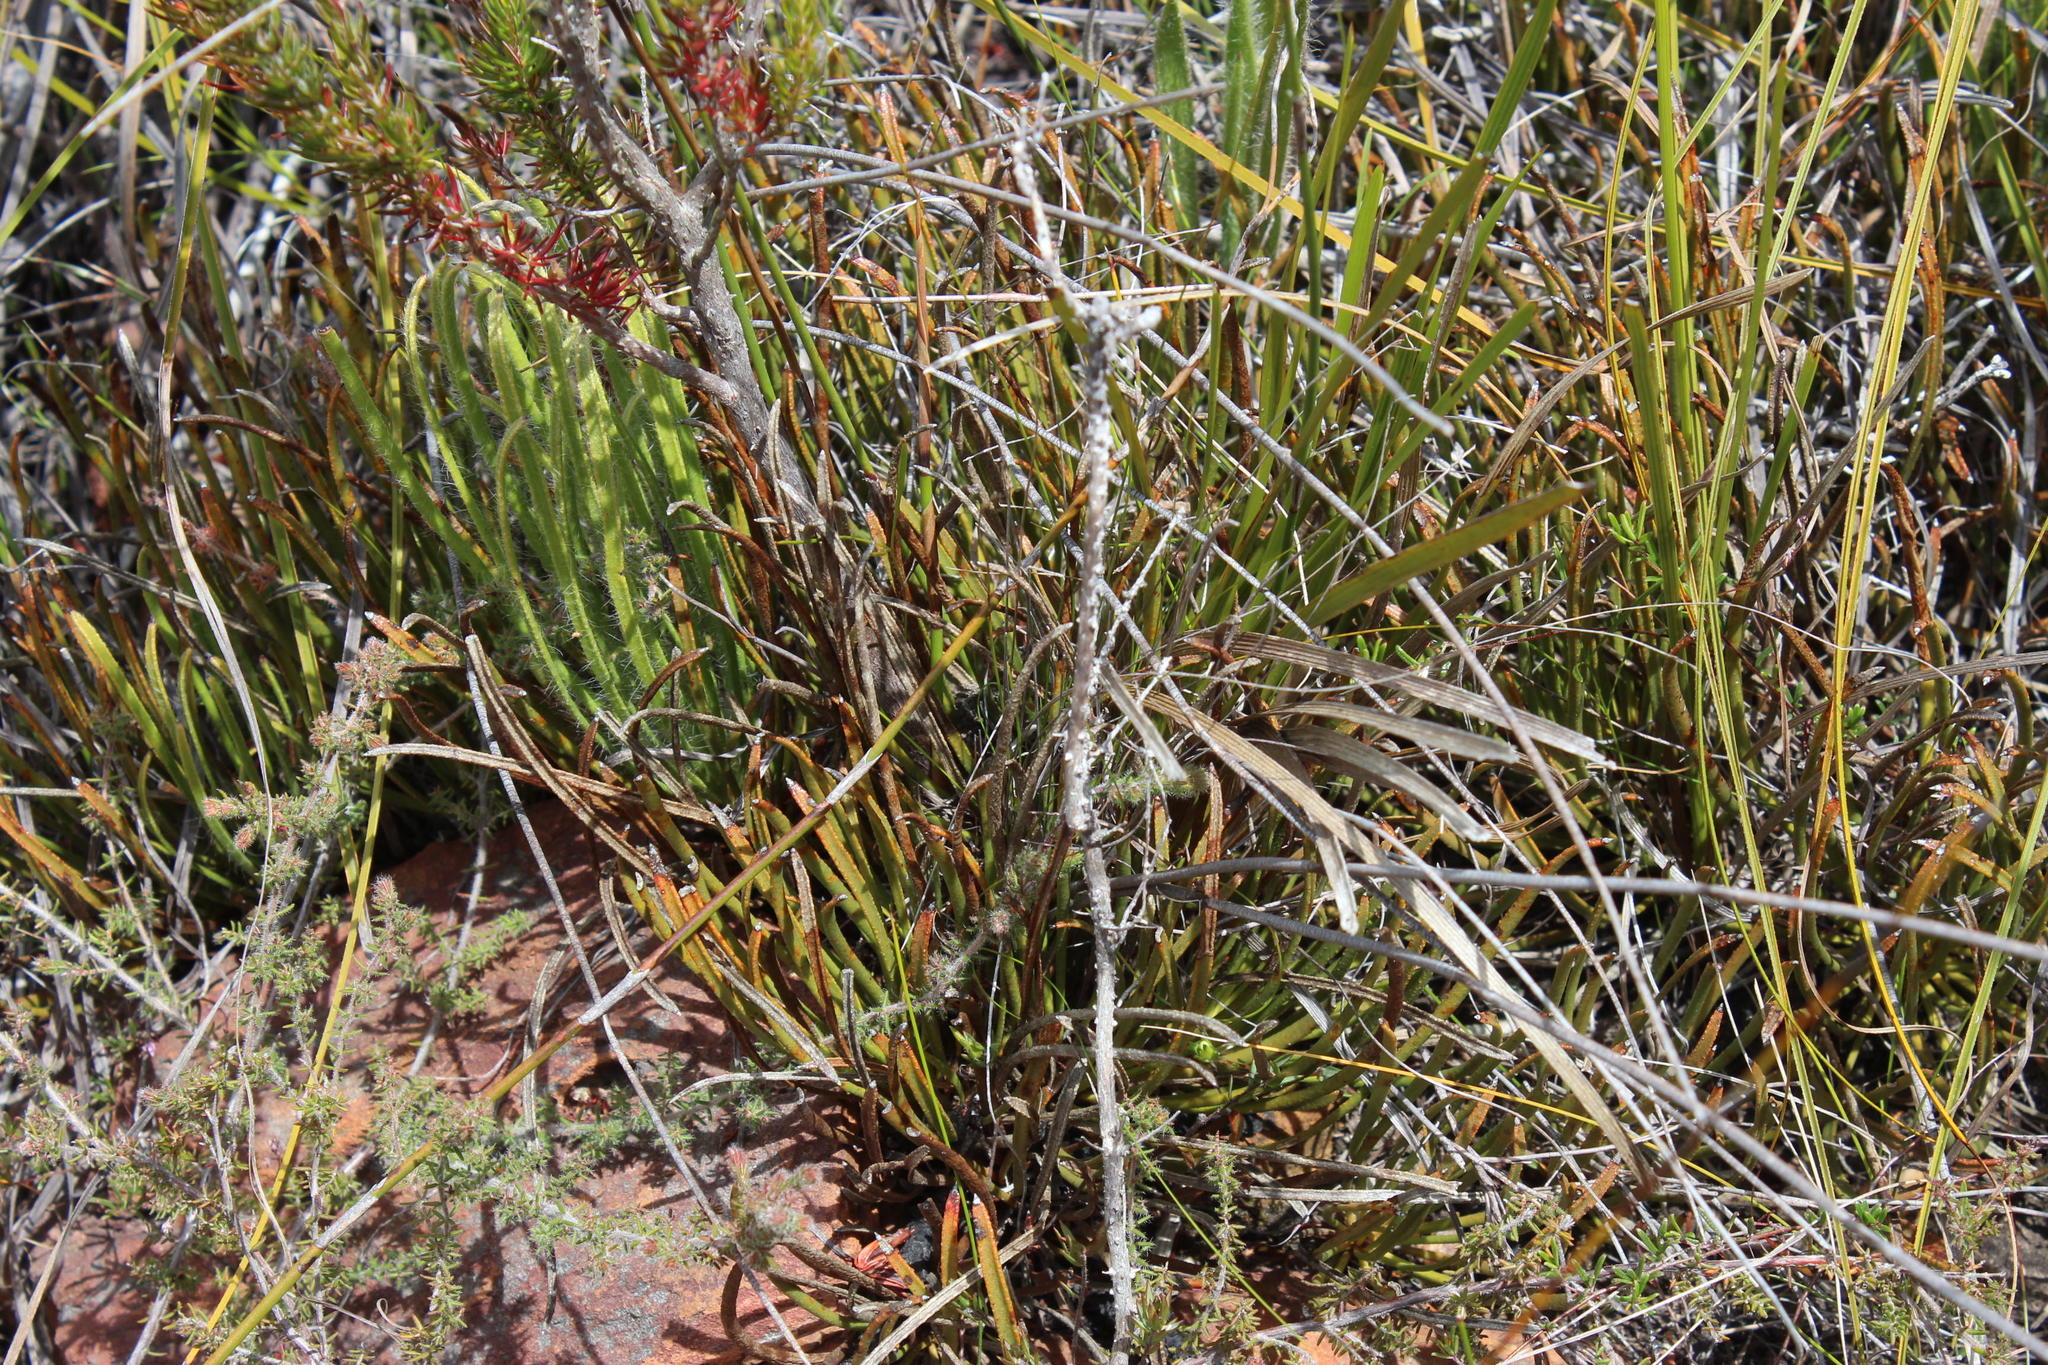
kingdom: Plantae
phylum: Tracheophyta
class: Magnoliopsida
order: Proteales
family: Proteaceae
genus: Protea
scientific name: Protea aspera
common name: Rough-leaf sugarbush
